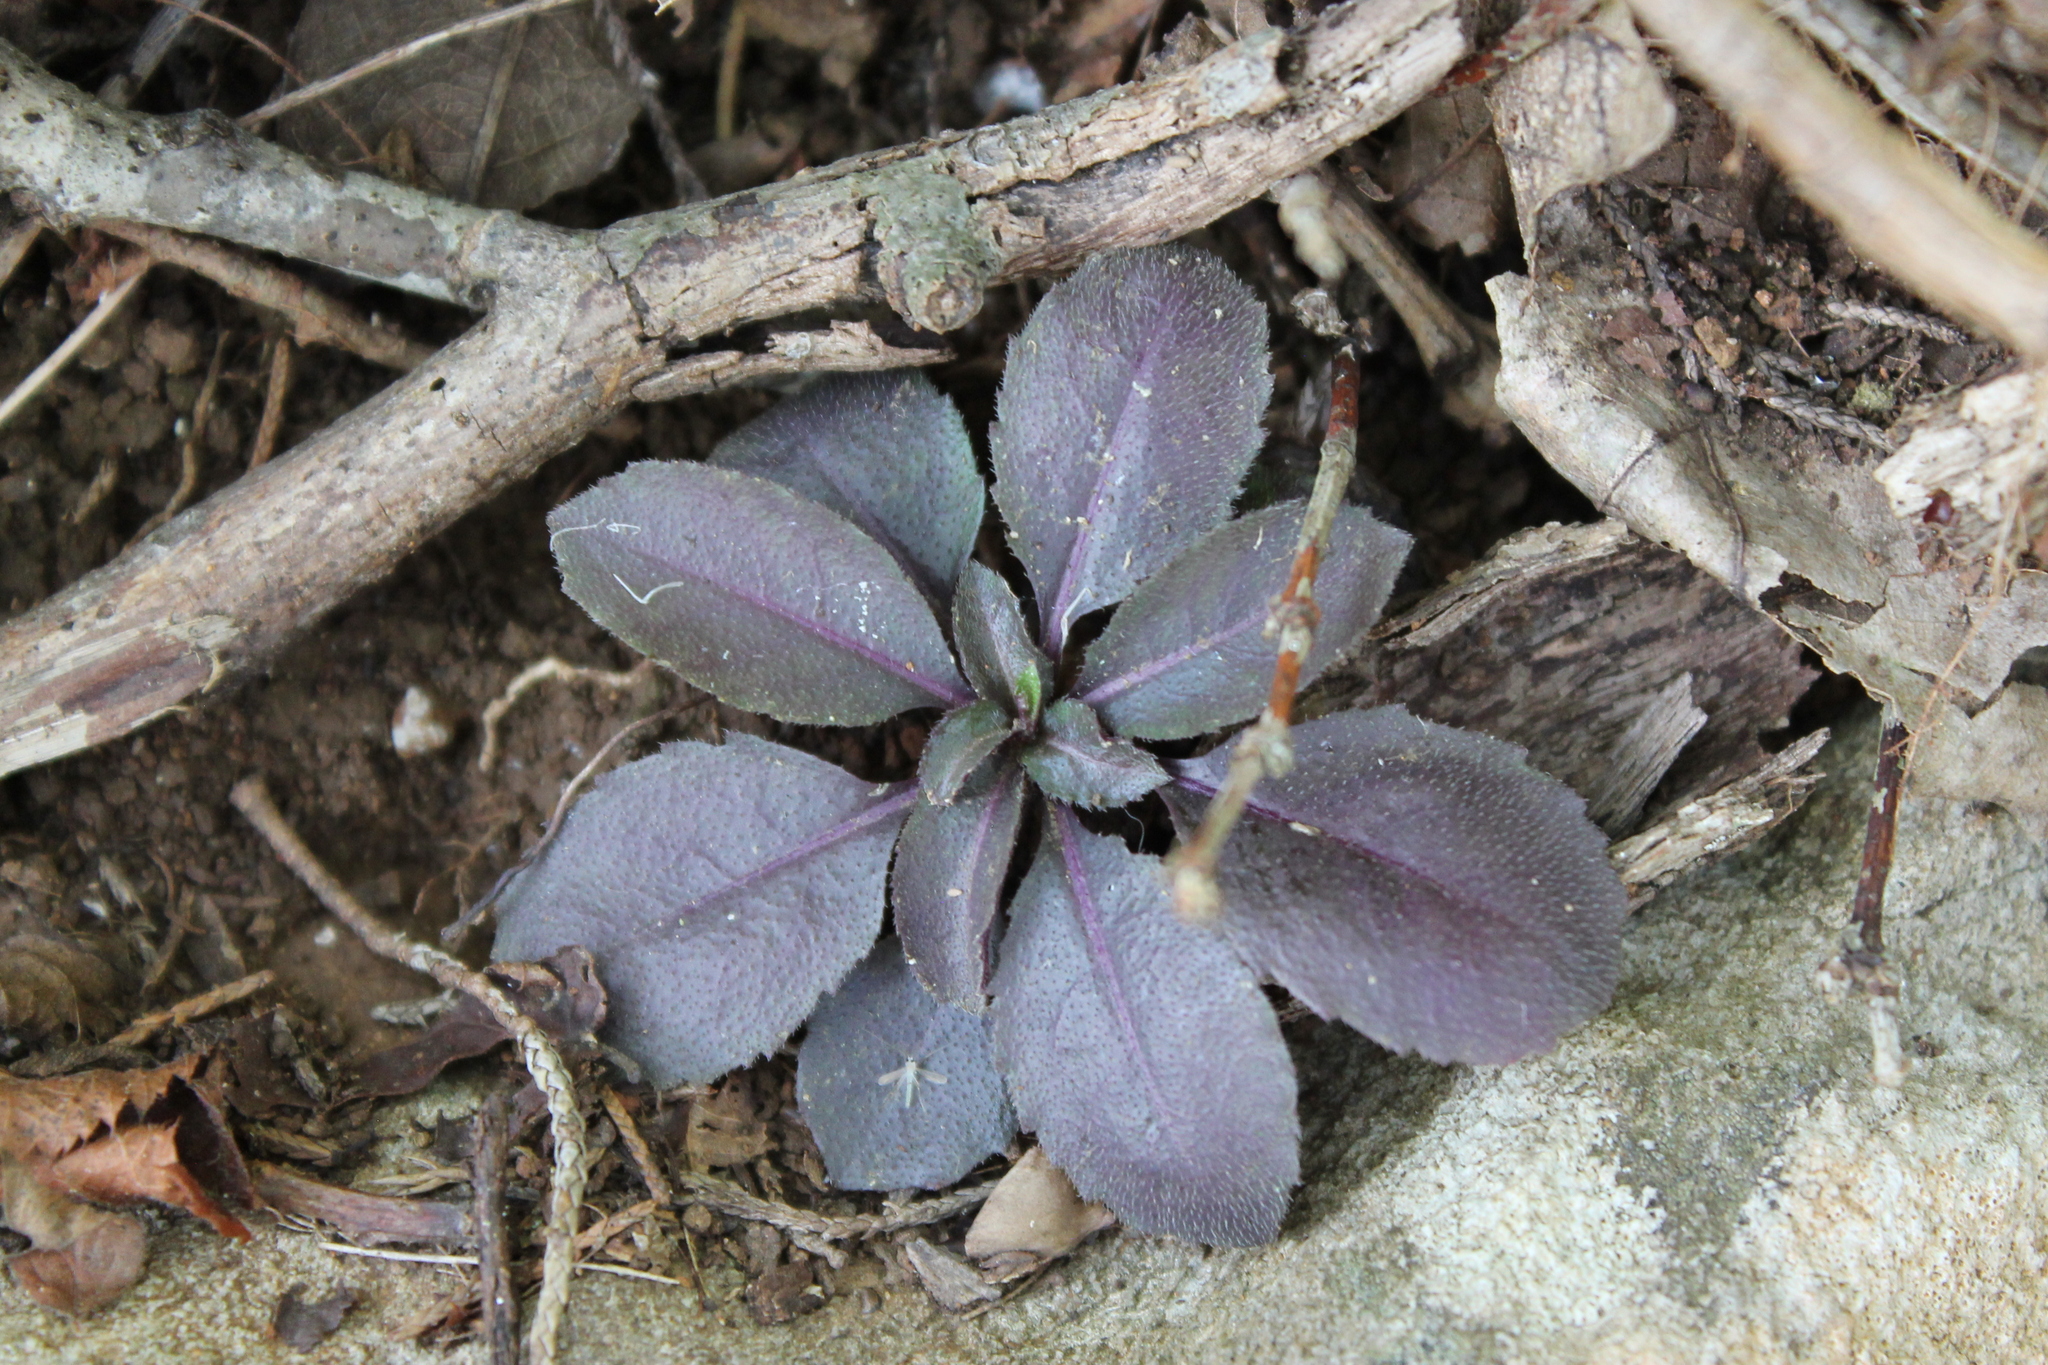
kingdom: Plantae
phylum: Tracheophyta
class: Magnoliopsida
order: Brassicales
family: Brassicaceae
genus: Borodinia
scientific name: Borodinia laevigata
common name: Smooth rockcress
